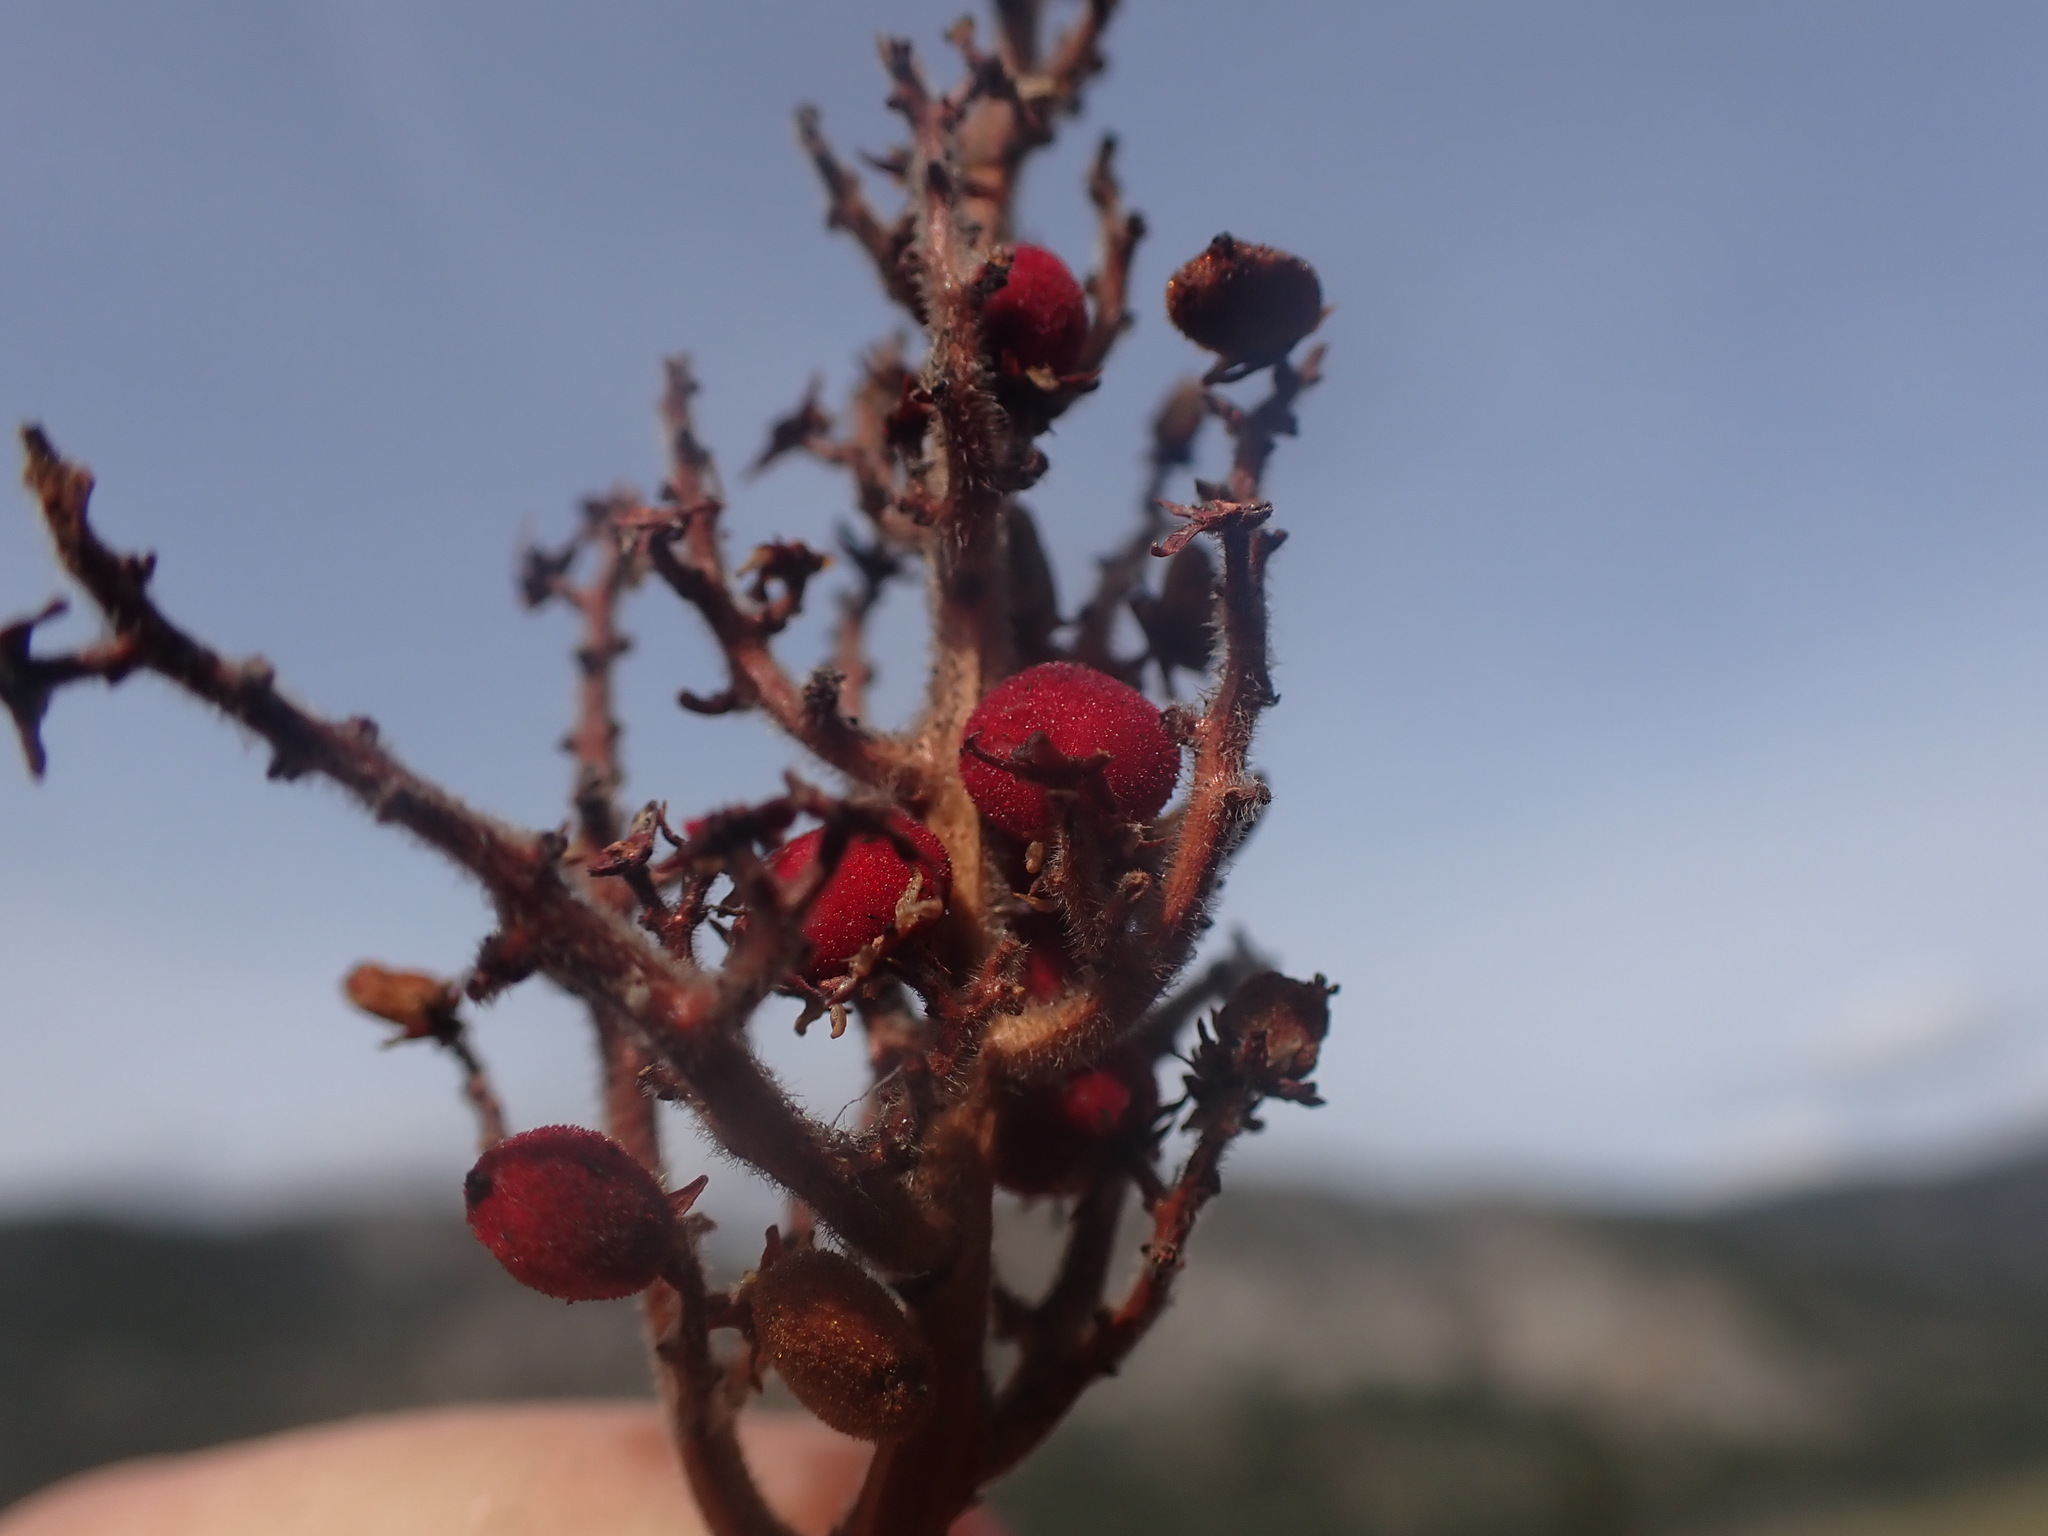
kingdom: Plantae
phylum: Tracheophyta
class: Magnoliopsida
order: Sapindales
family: Anacardiaceae
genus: Rhus
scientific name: Rhus glabra
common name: Scarlet sumac
